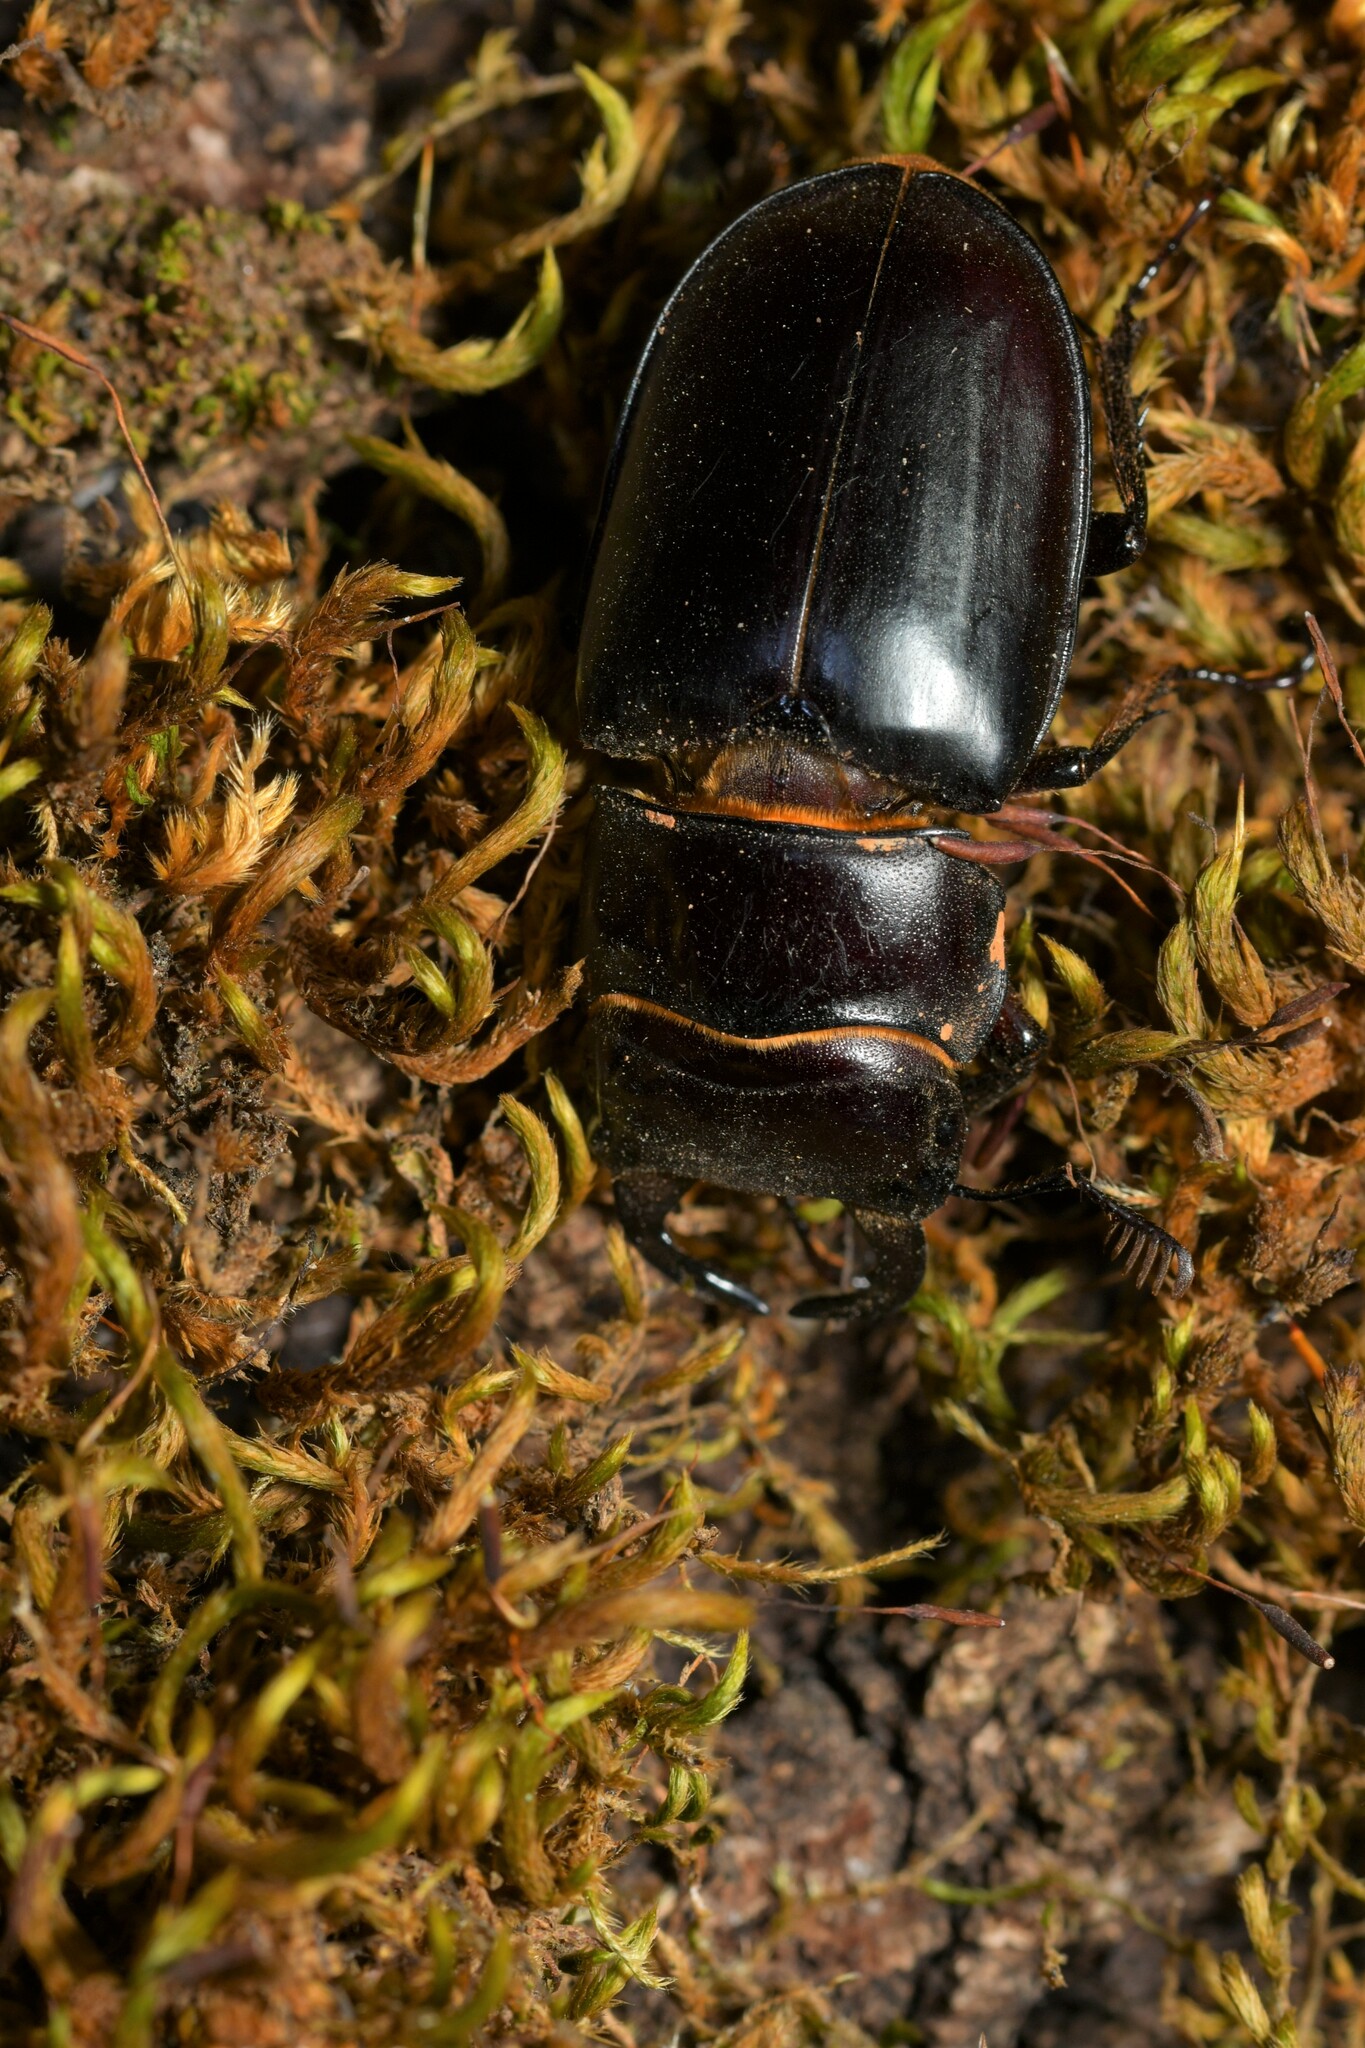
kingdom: Animalia
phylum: Arthropoda
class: Insecta
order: Coleoptera
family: Lucanidae
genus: Lucanus
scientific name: Lucanus barbarossa
